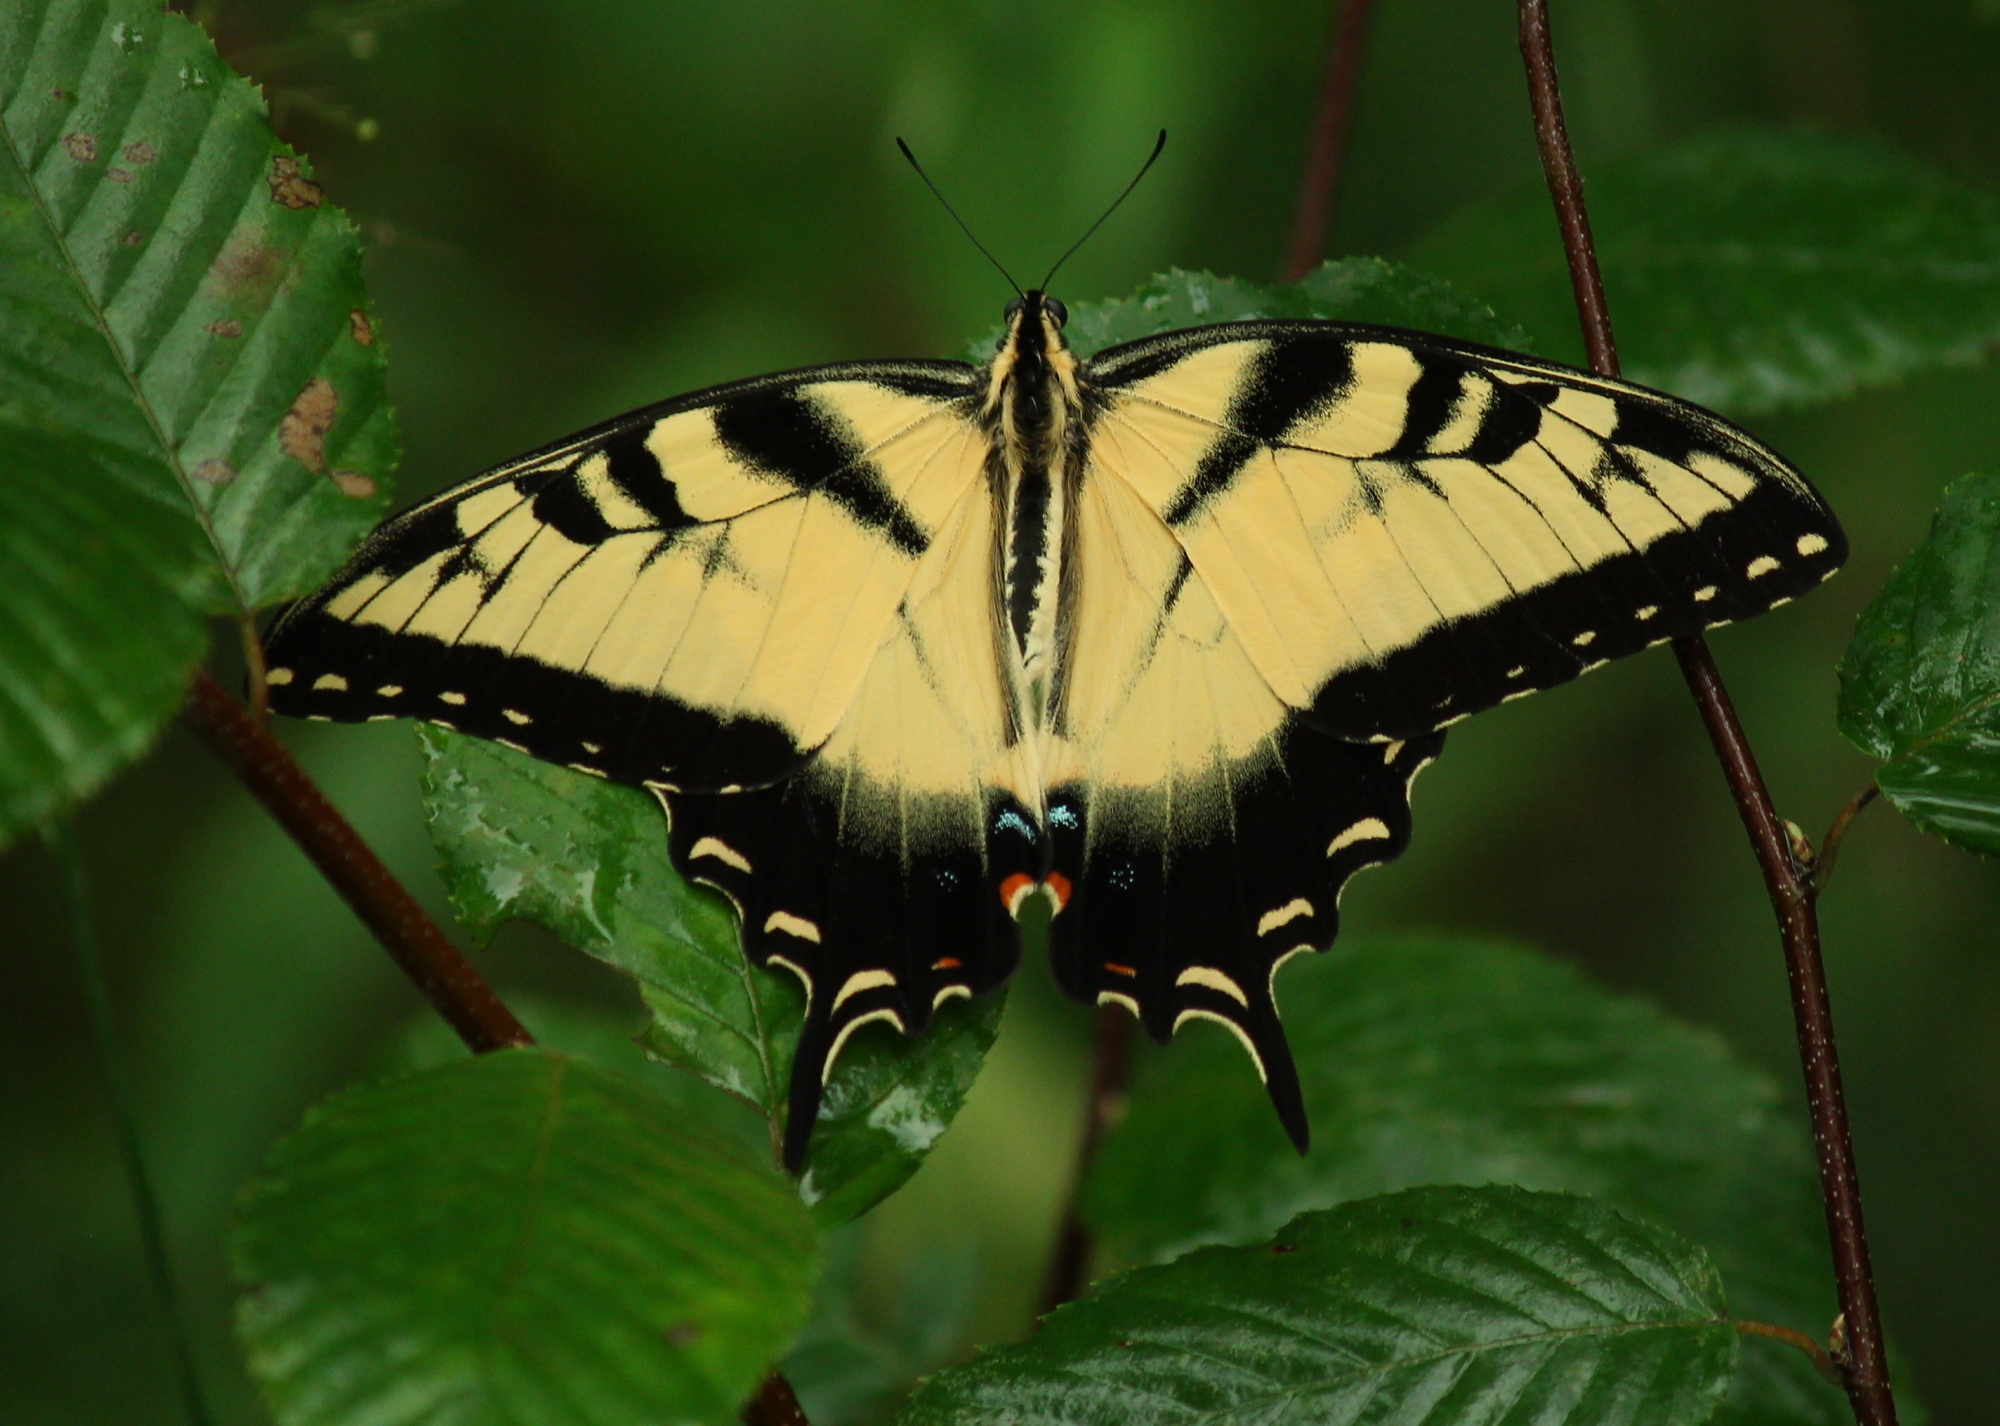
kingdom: Animalia
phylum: Arthropoda
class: Insecta
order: Lepidoptera
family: Papilionidae
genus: Papilio
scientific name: Papilio glaucus
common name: Tiger swallowtail
